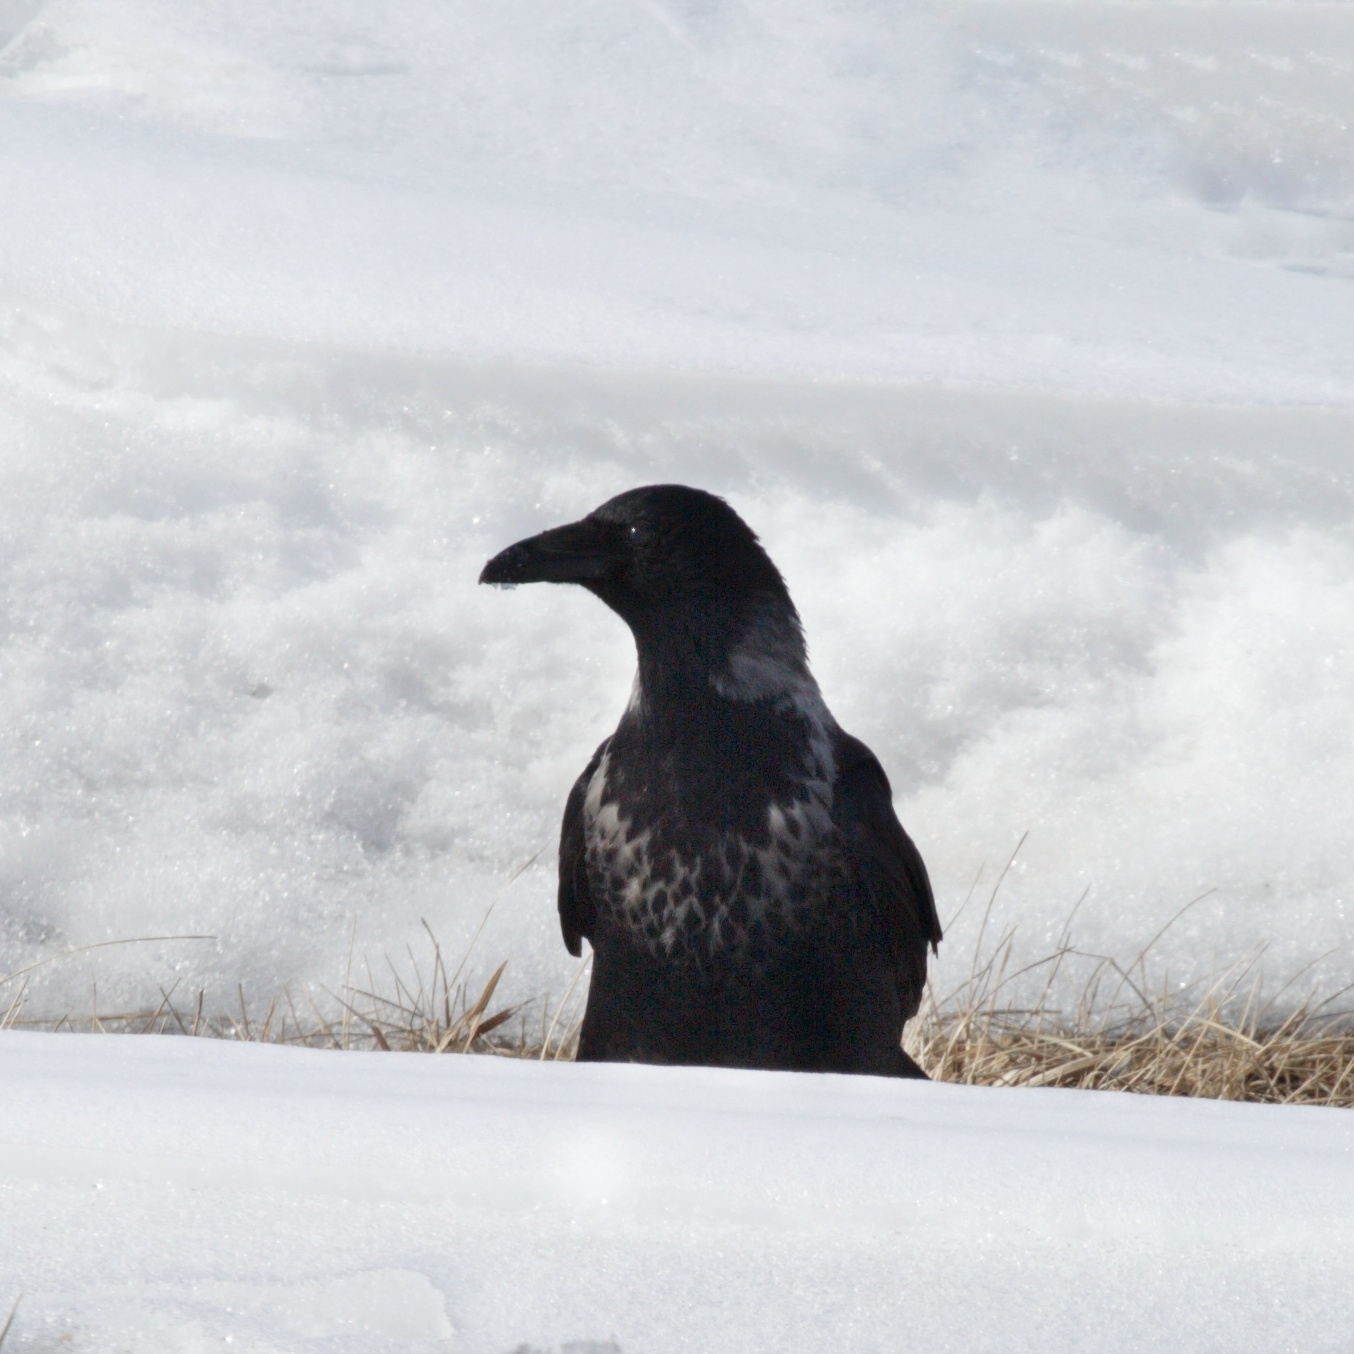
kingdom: Animalia
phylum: Chordata
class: Aves
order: Passeriformes
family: Corvidae
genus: Corvus
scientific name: Corvus
